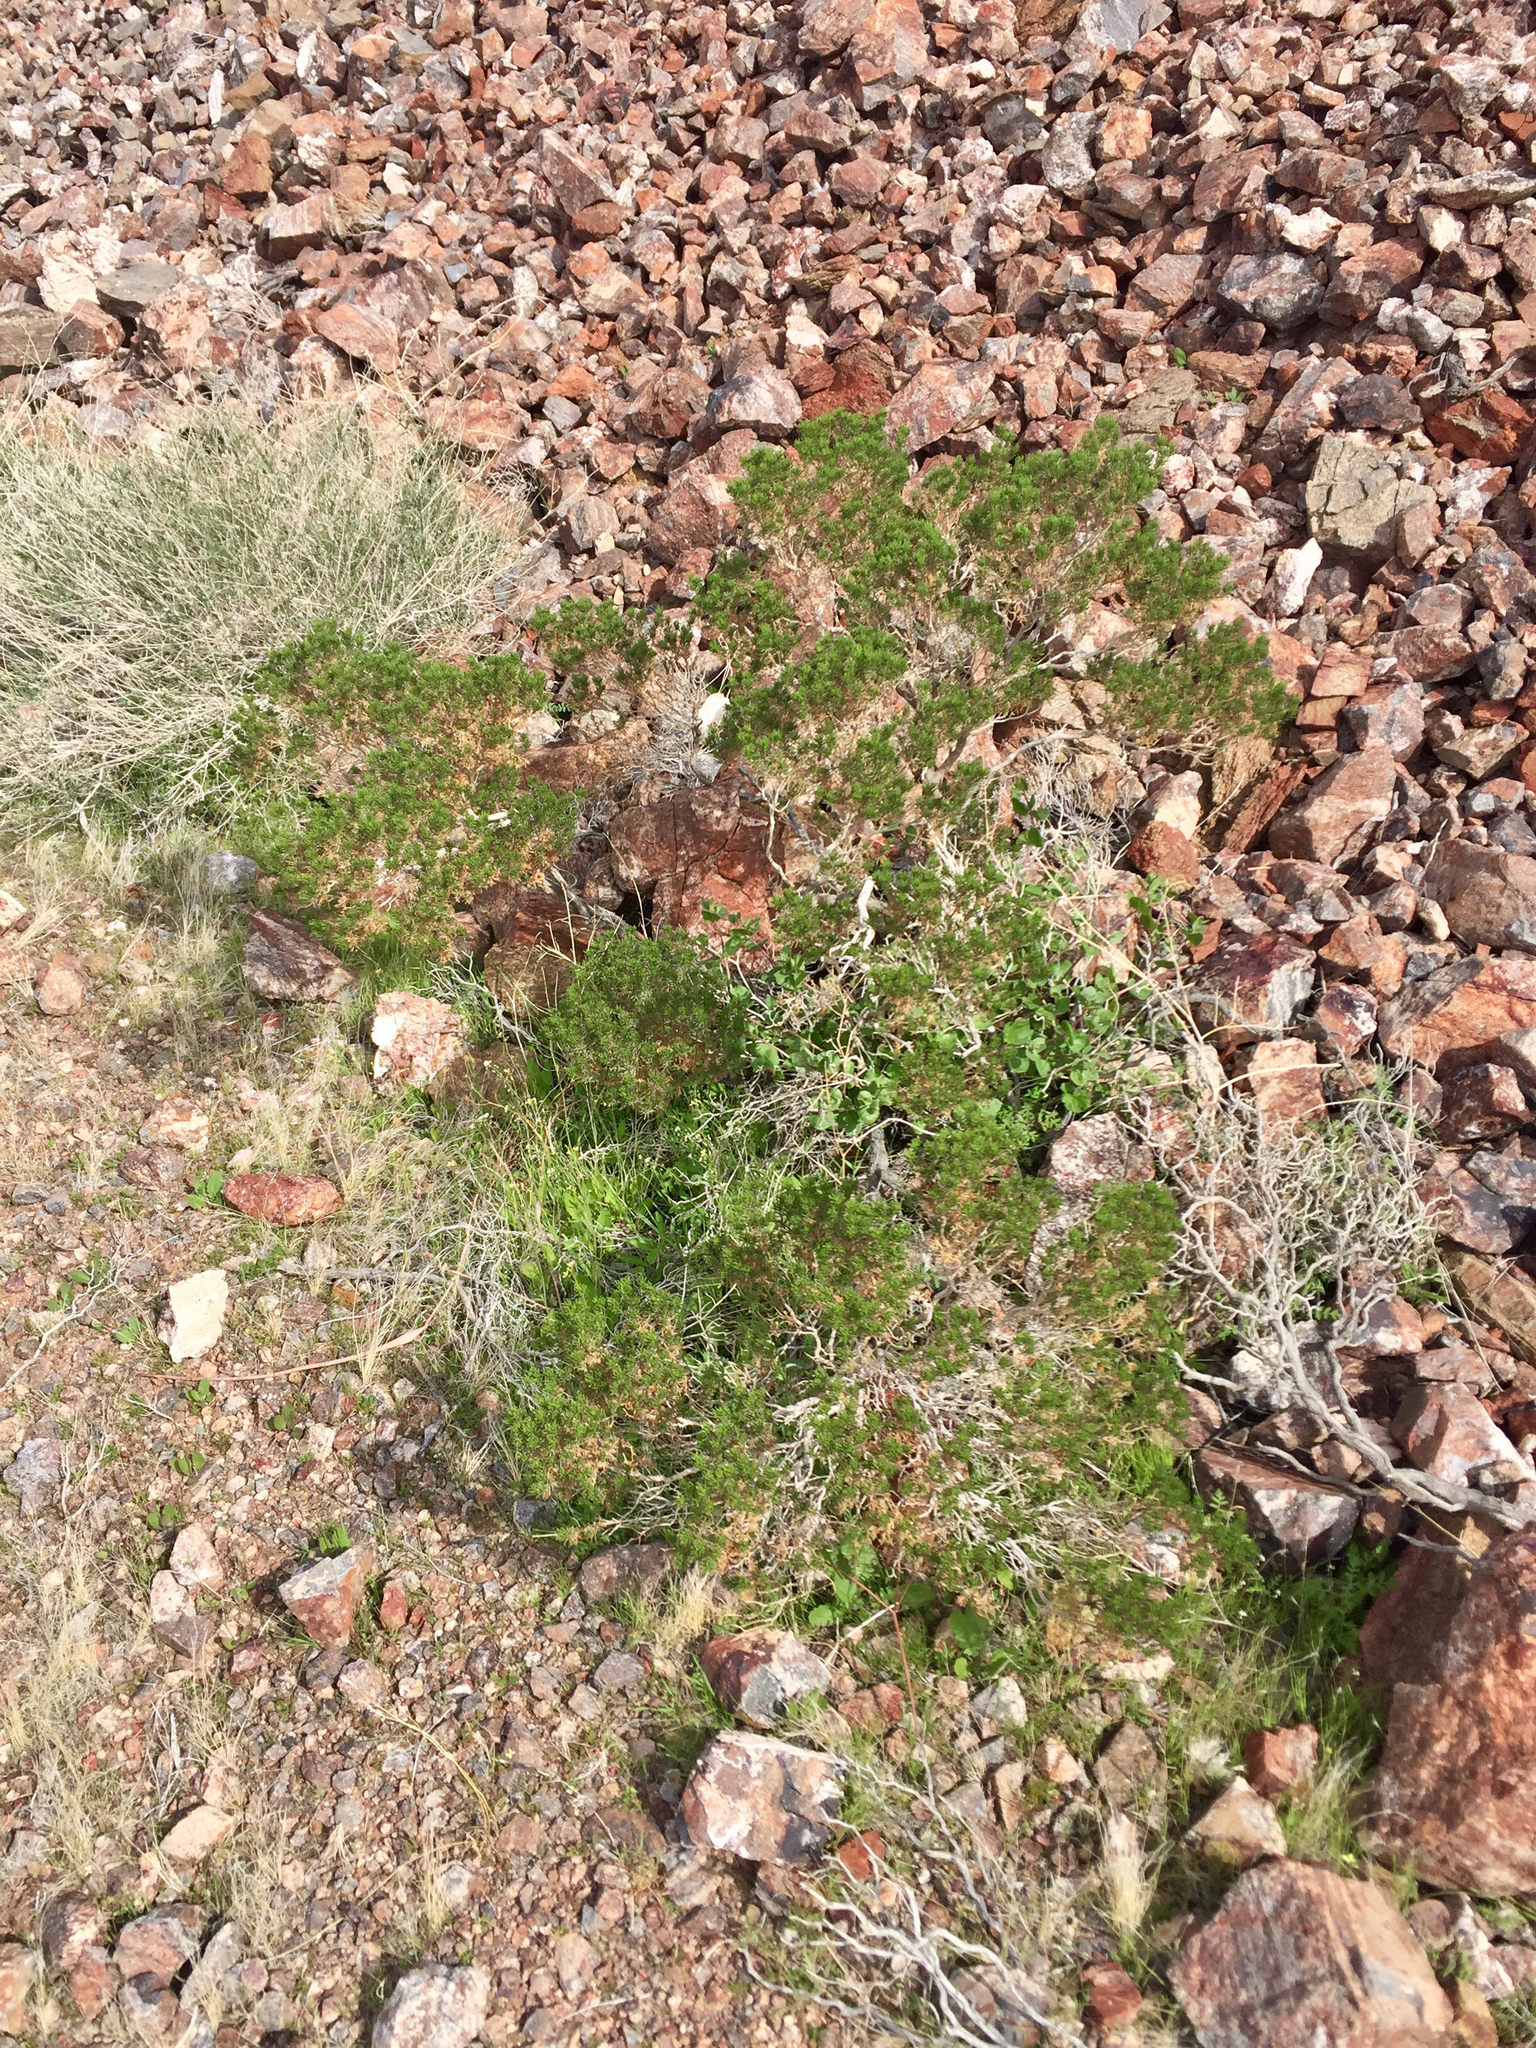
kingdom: Plantae
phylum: Tracheophyta
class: Magnoliopsida
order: Zygophyllales
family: Zygophyllaceae
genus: Larrea
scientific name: Larrea tridentata
